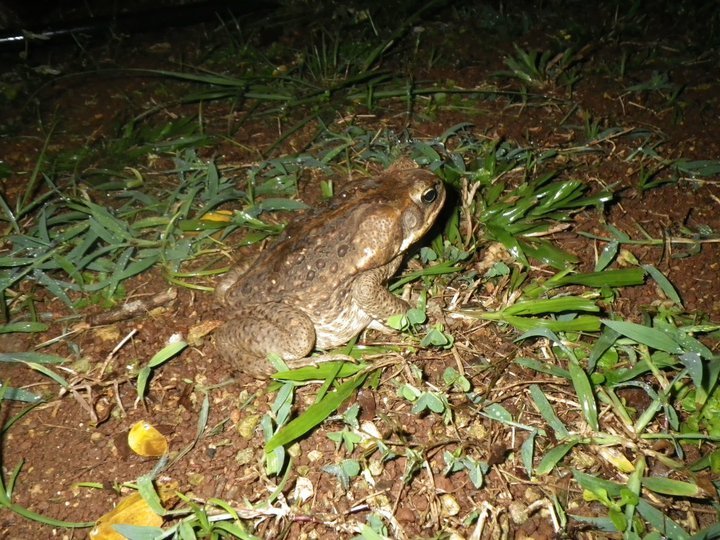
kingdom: Animalia
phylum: Chordata
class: Amphibia
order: Anura
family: Bufonidae
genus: Rhinella
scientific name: Rhinella marina
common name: Cane toad
